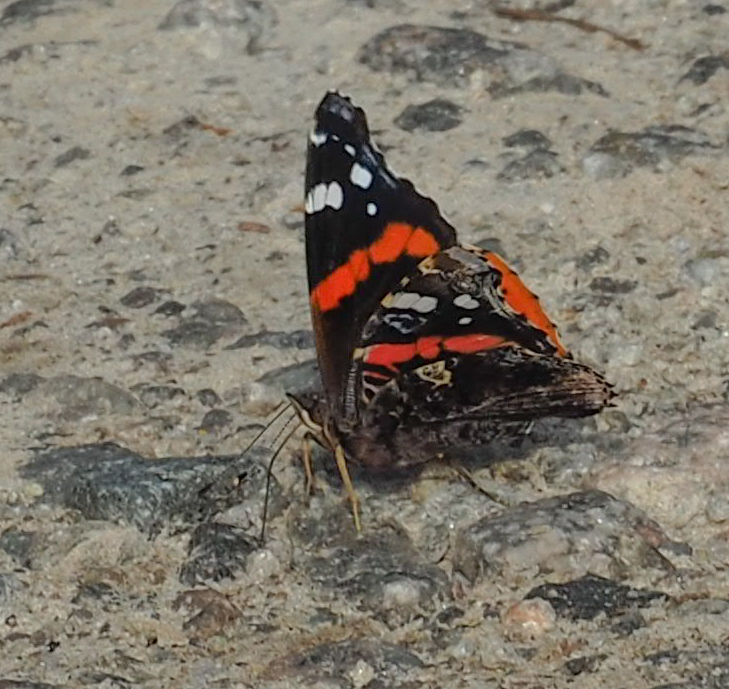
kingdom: Animalia
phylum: Arthropoda
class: Insecta
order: Lepidoptera
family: Nymphalidae
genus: Vanessa
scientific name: Vanessa atalanta
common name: Red admiral
